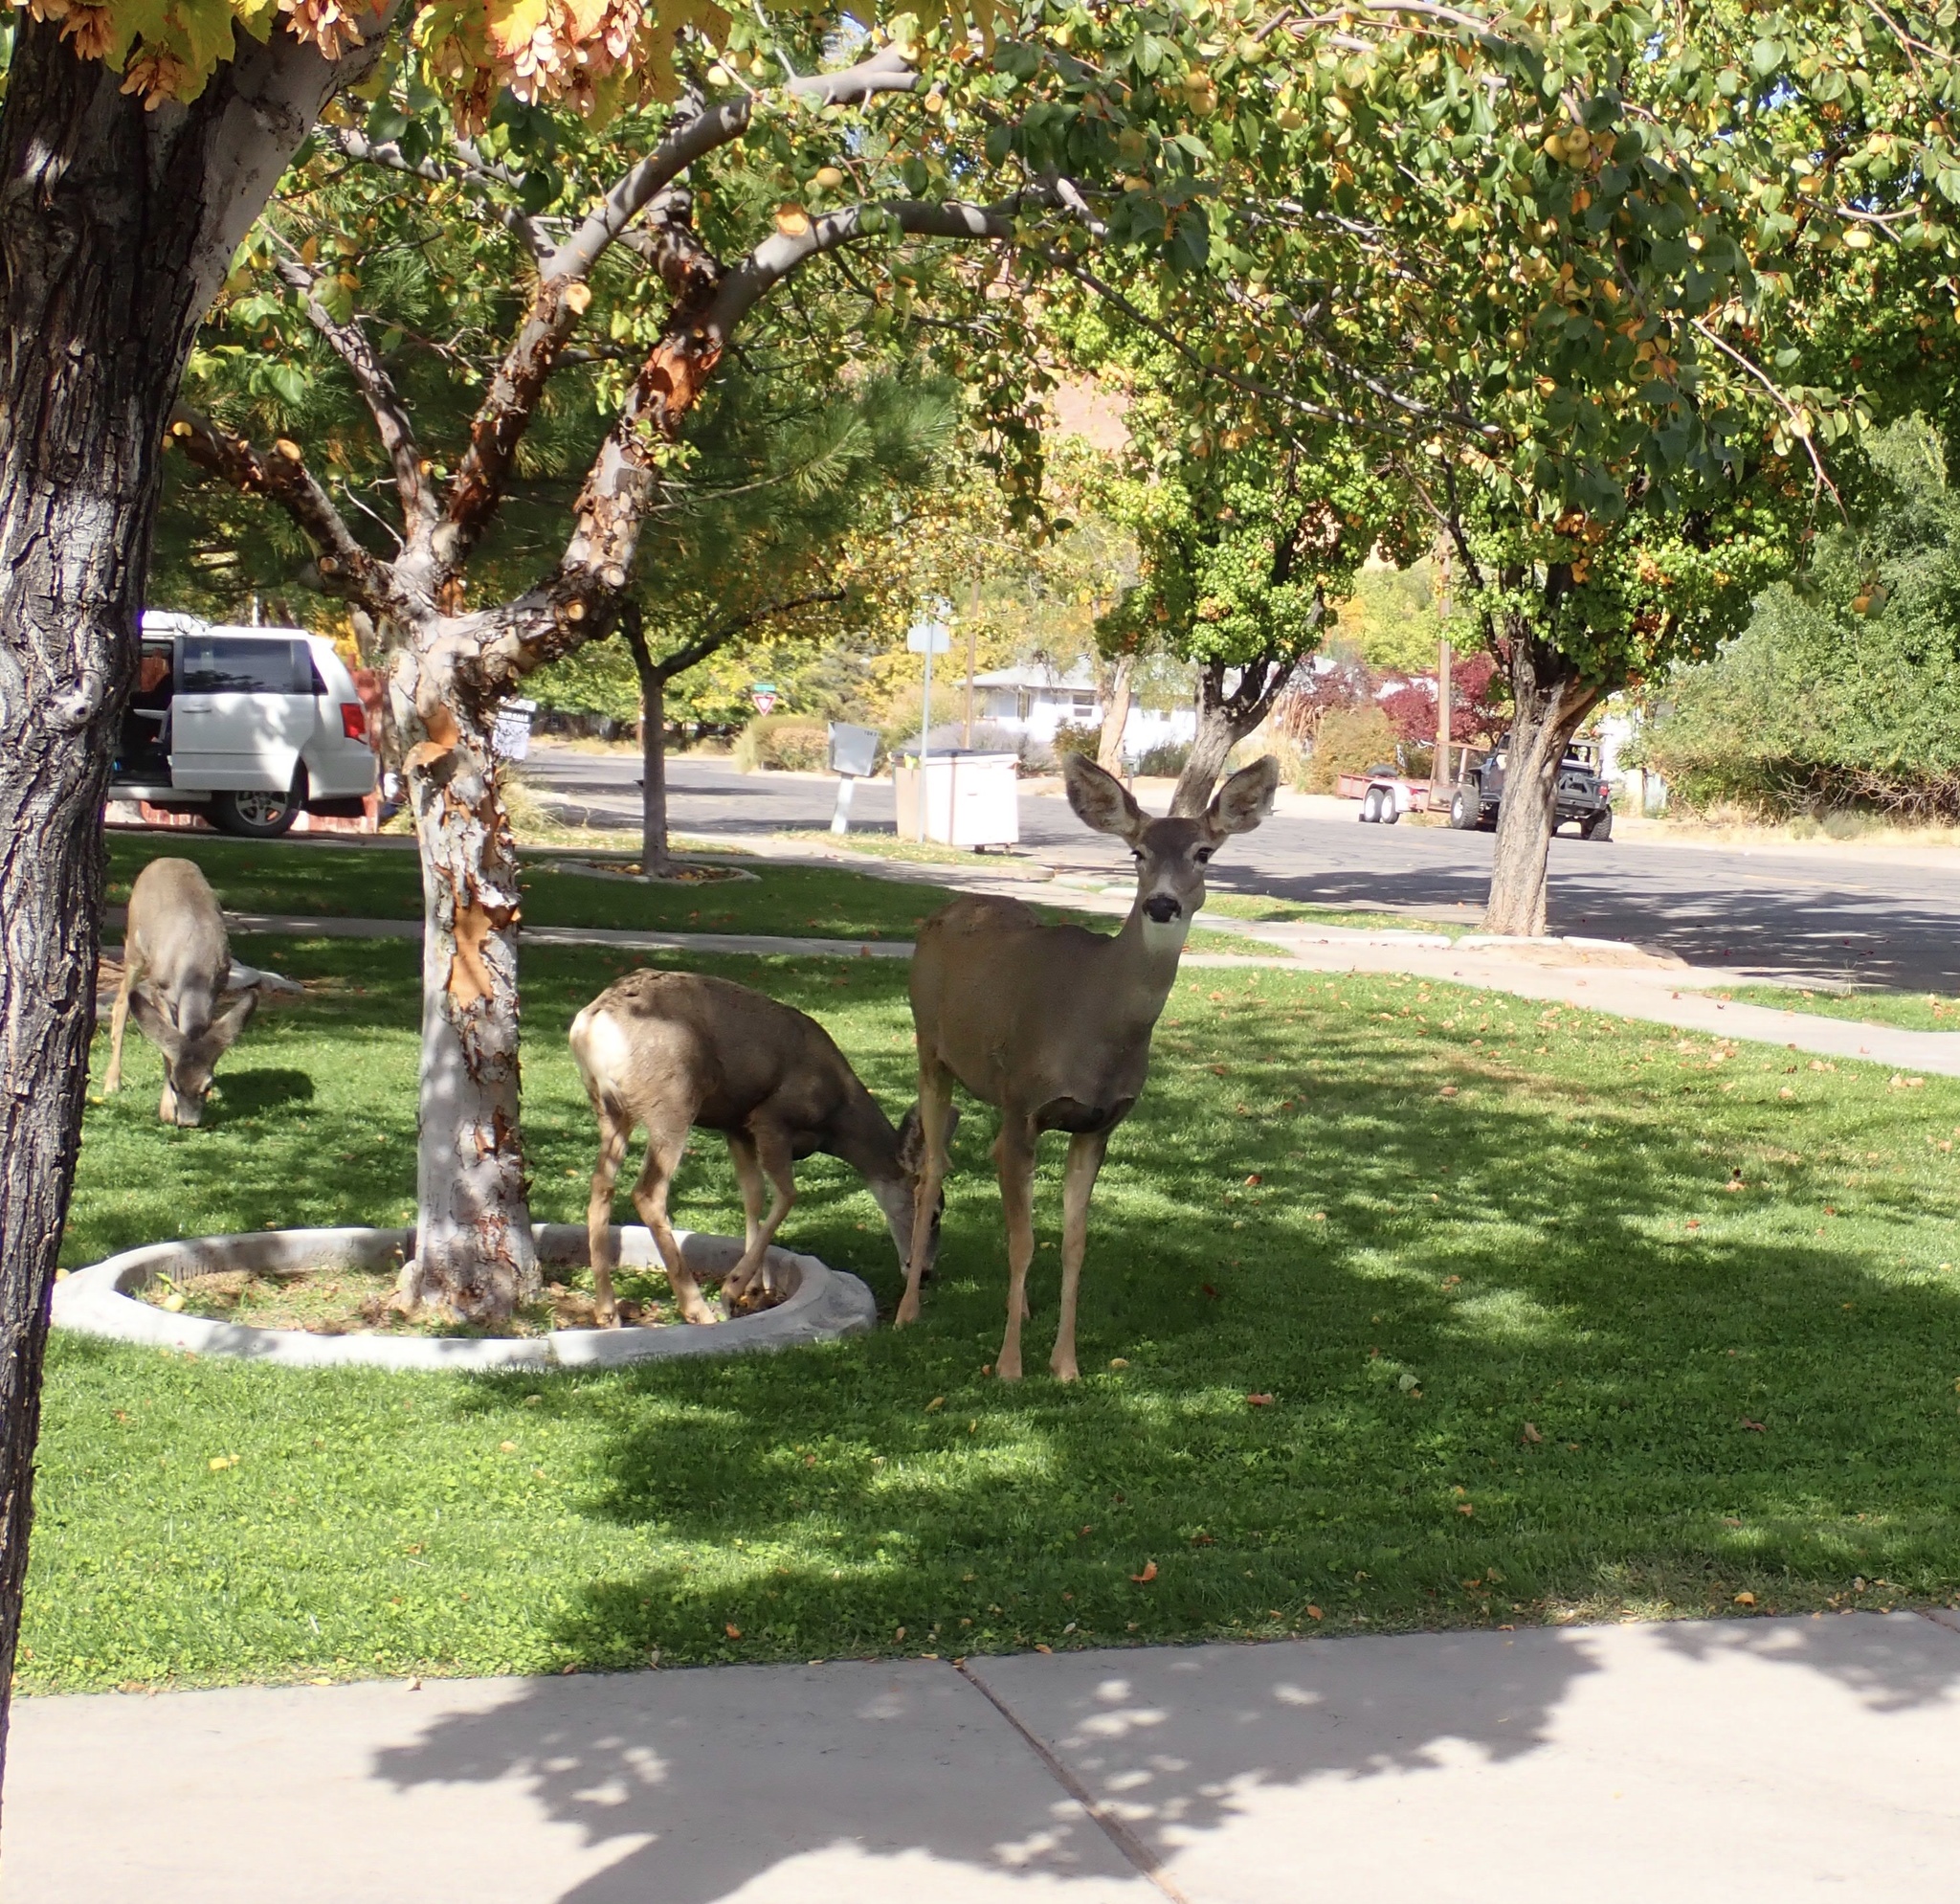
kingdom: Animalia
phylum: Chordata
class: Mammalia
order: Artiodactyla
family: Cervidae
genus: Odocoileus
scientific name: Odocoileus hemionus
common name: Mule deer
